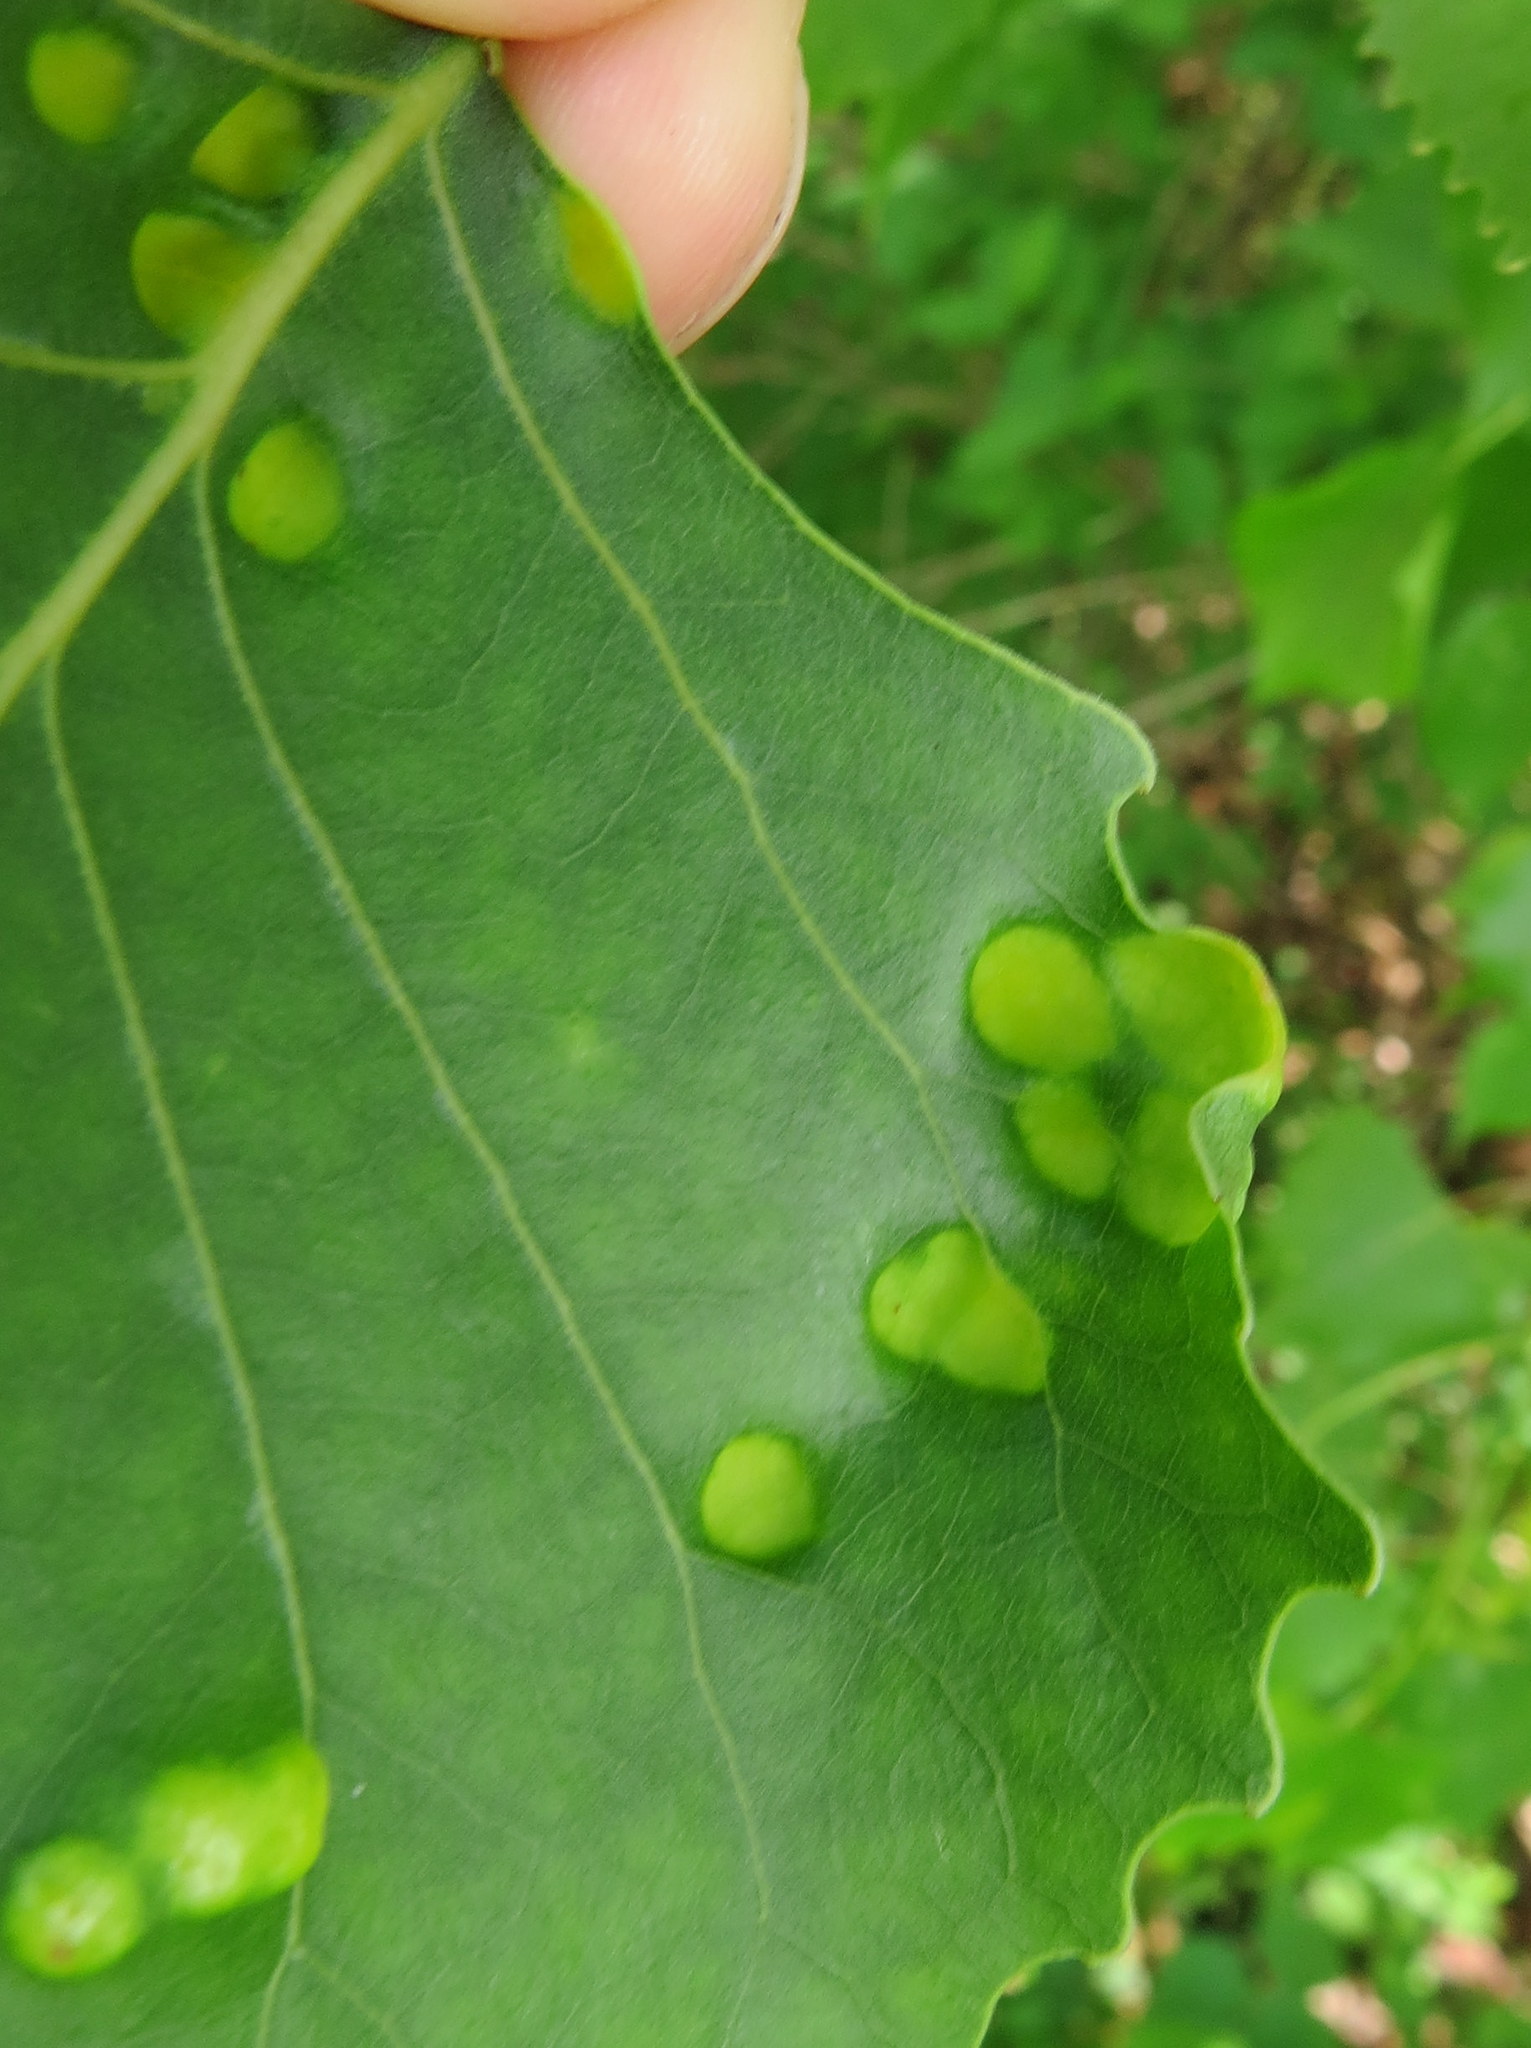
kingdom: Fungi
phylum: Ascomycota
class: Taphrinomycetes
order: Taphrinales
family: Taphrinaceae
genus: Taphrina
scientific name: Taphrina populina
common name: Poplar leaf curl
